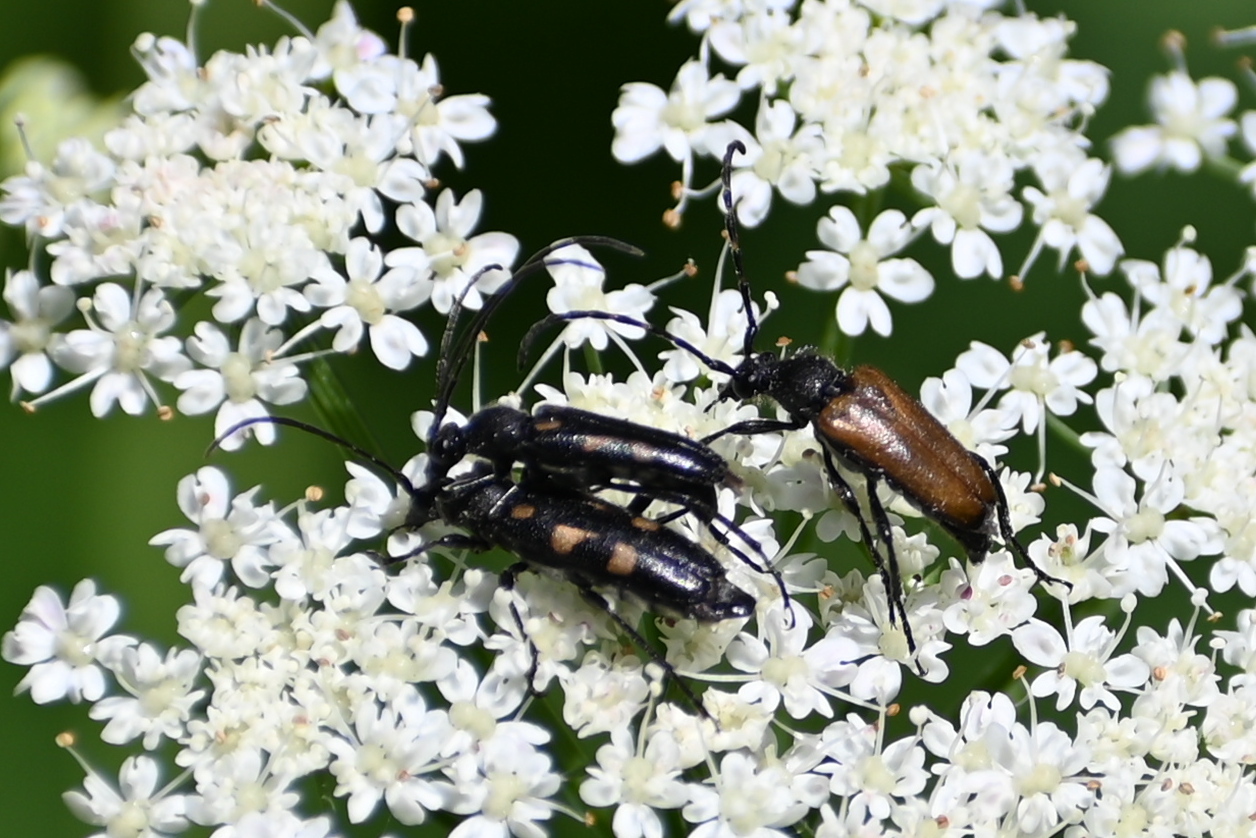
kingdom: Animalia
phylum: Arthropoda
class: Insecta
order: Coleoptera
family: Cerambycidae
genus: Anoplodera
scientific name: Anoplodera sexguttata
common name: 6 spotted longhorn
